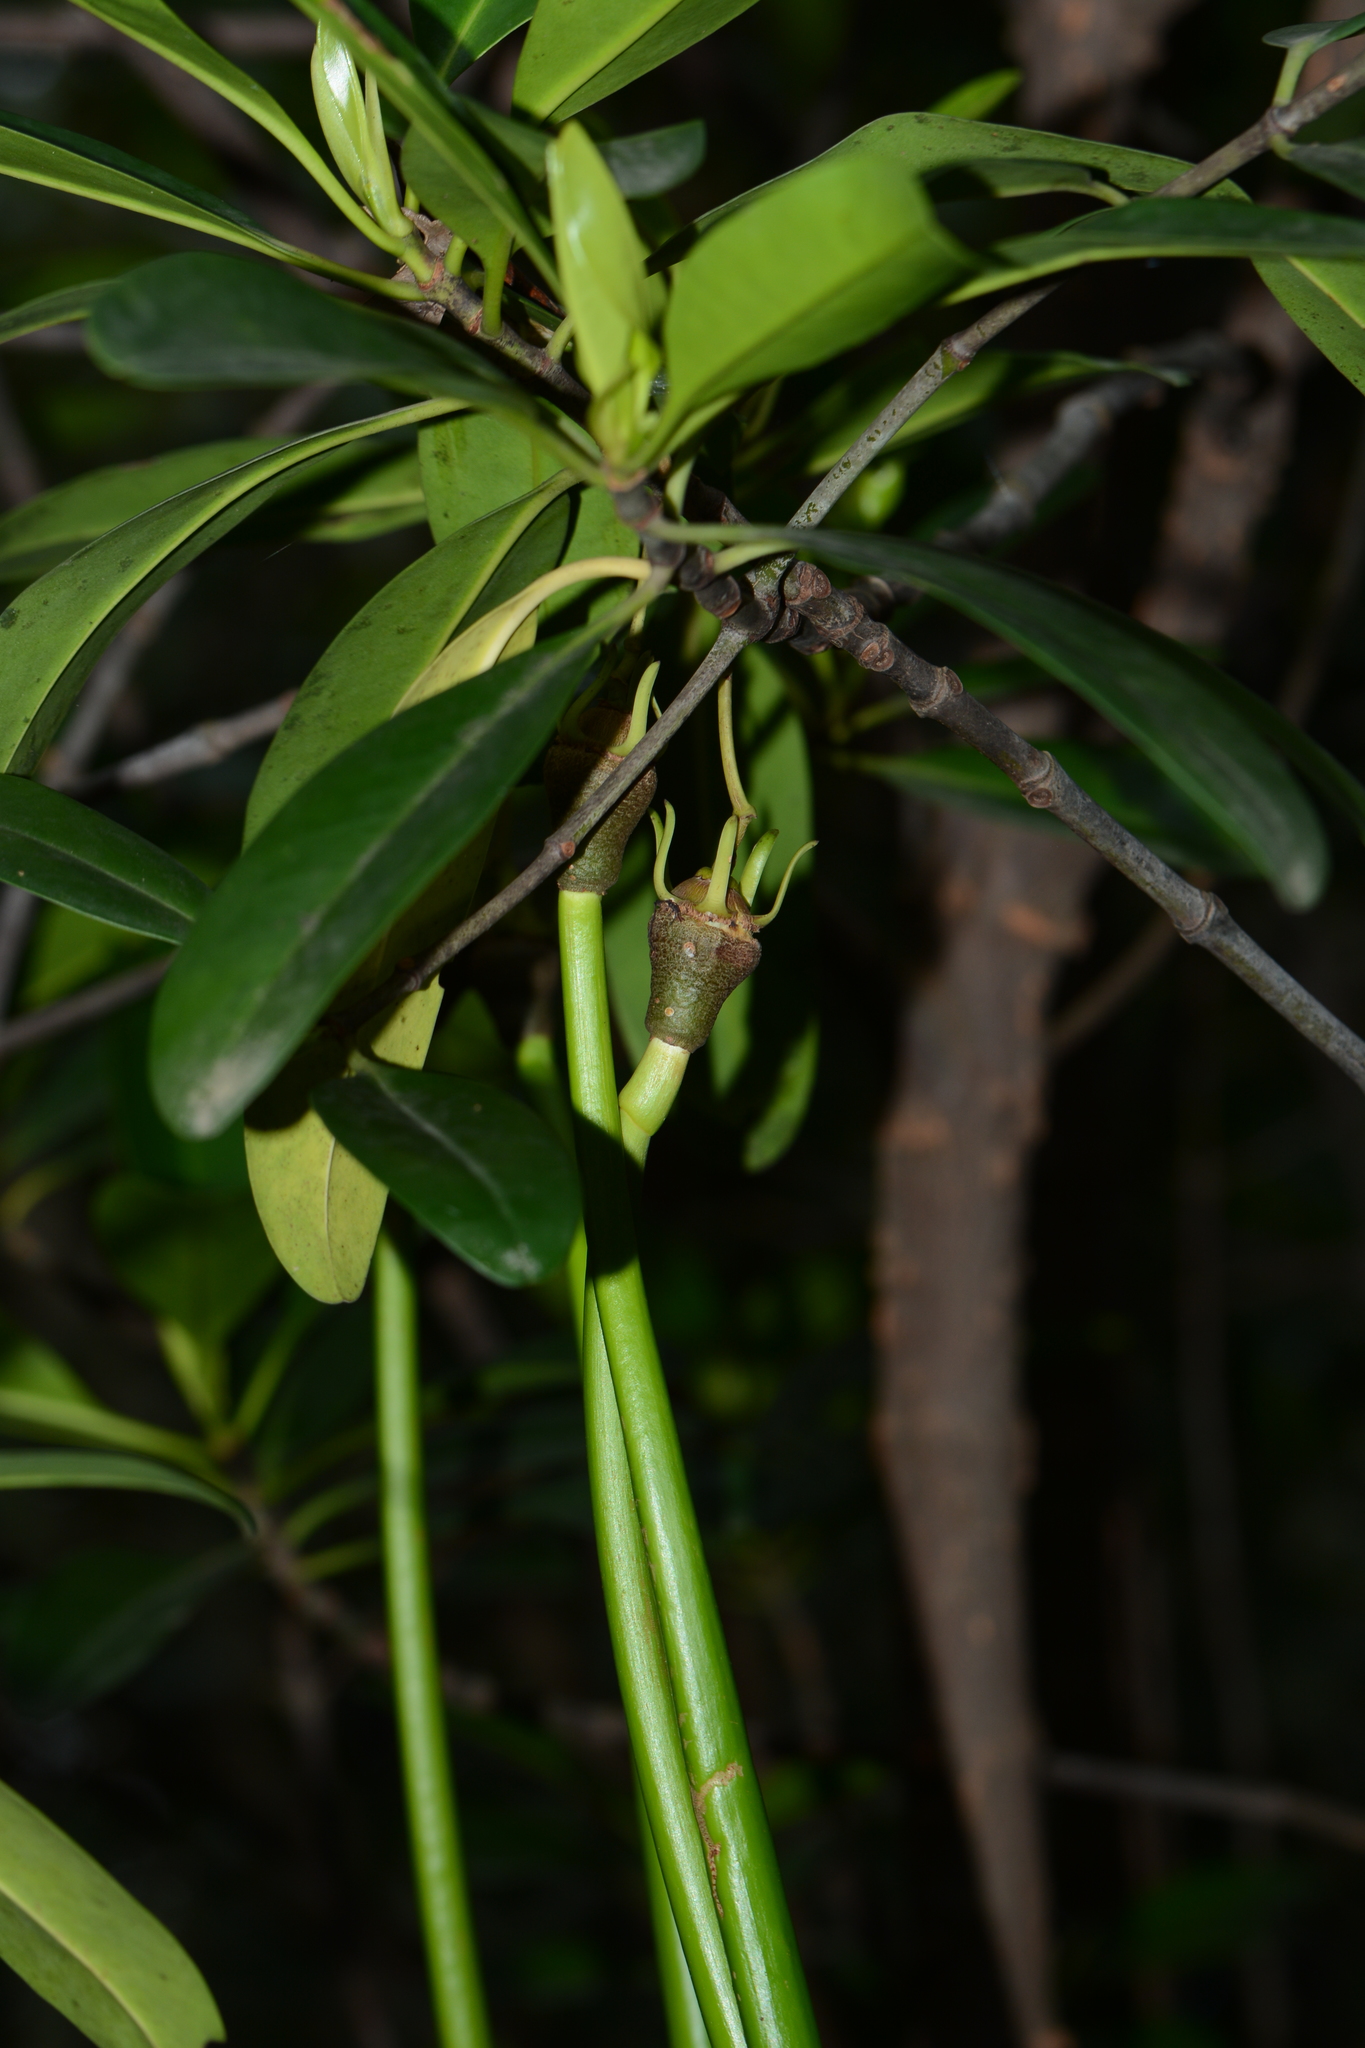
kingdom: Plantae
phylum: Tracheophyta
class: Magnoliopsida
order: Malpighiales
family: Rhizophoraceae
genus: Rhizophora
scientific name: Rhizophora mucronata
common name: Loop-root mangrove
